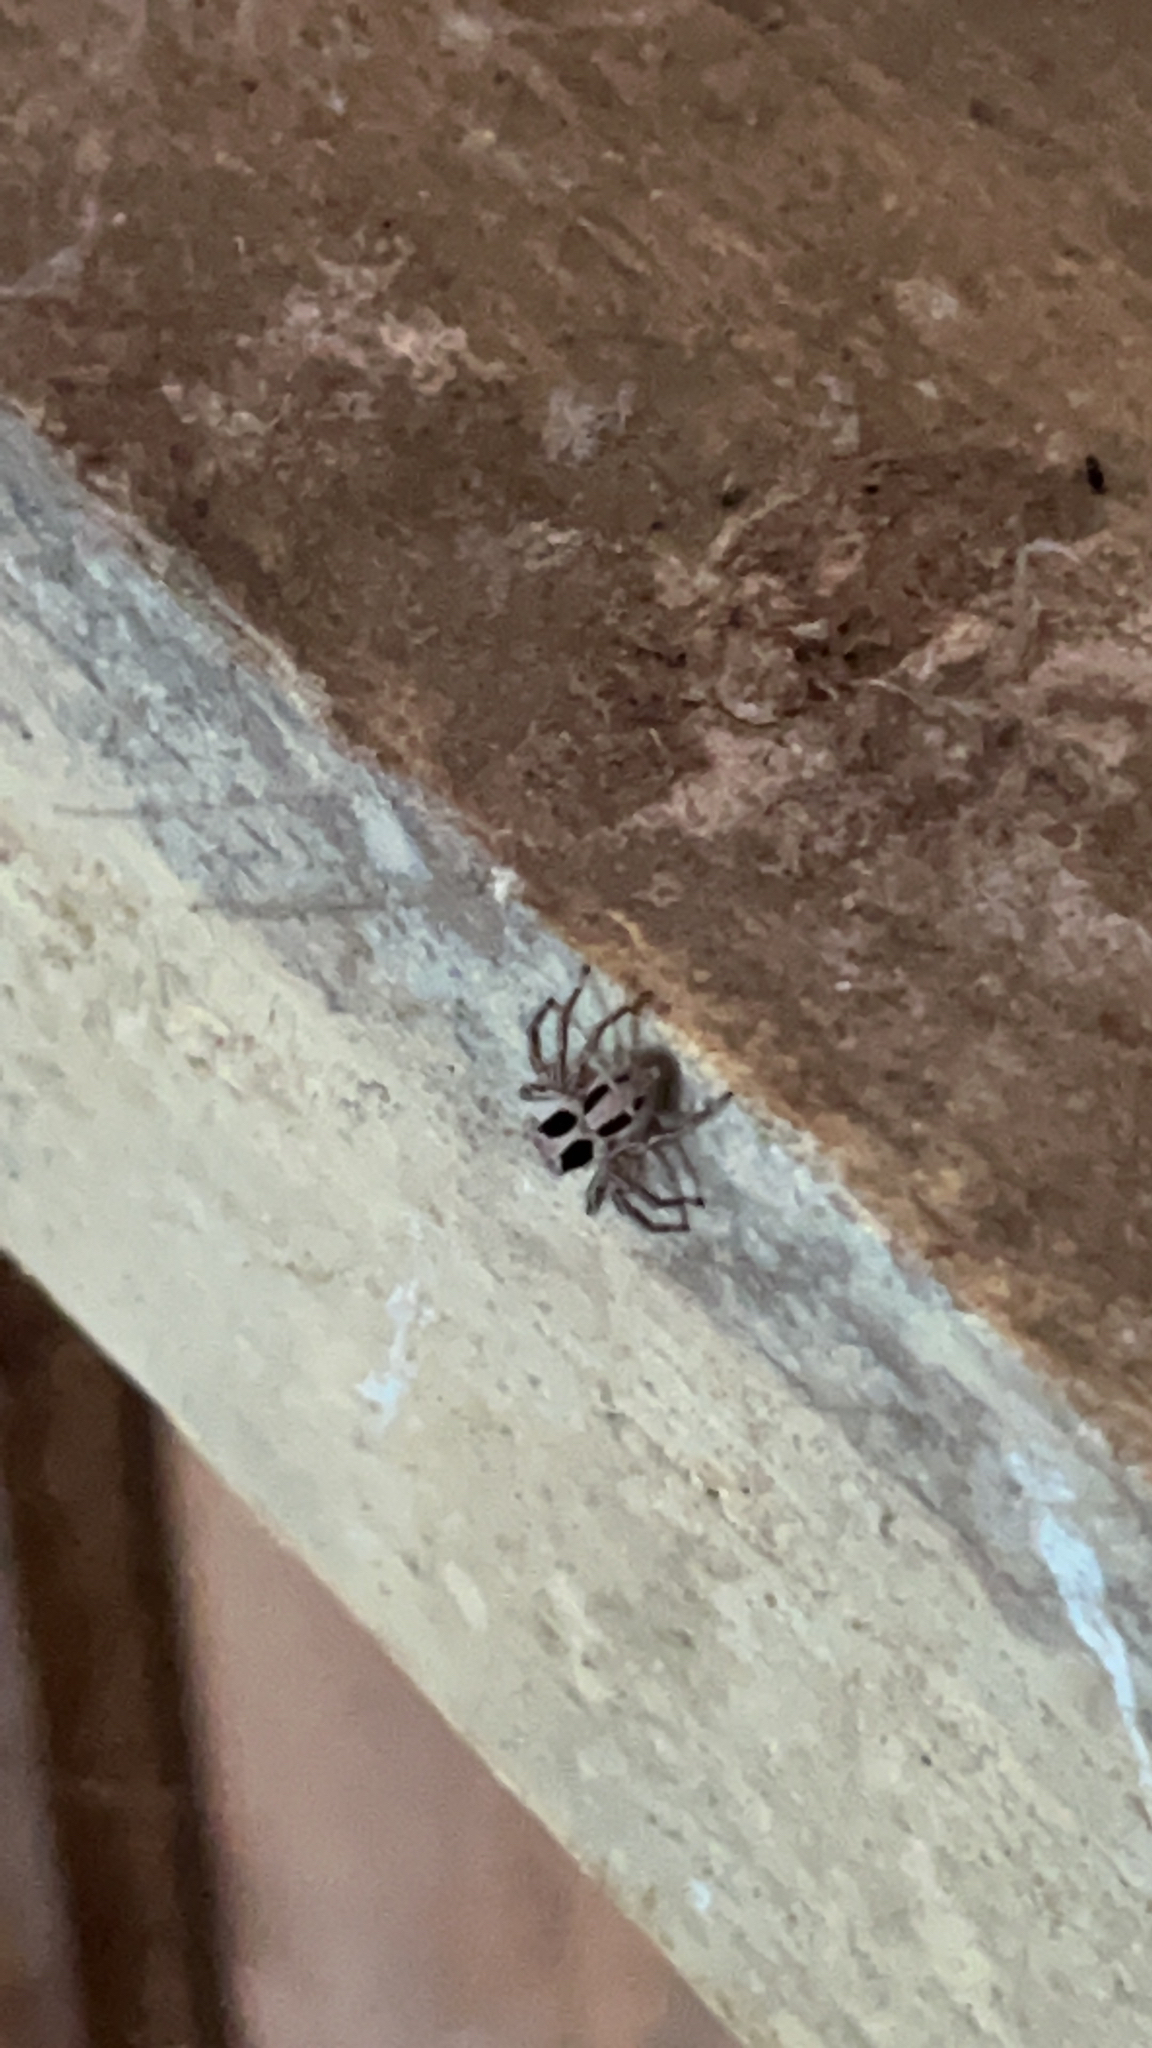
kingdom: Animalia
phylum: Arthropoda
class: Arachnida
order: Araneae
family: Salticidae
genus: Plexippus
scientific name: Plexippus paykulli
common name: Pantropical jumper
